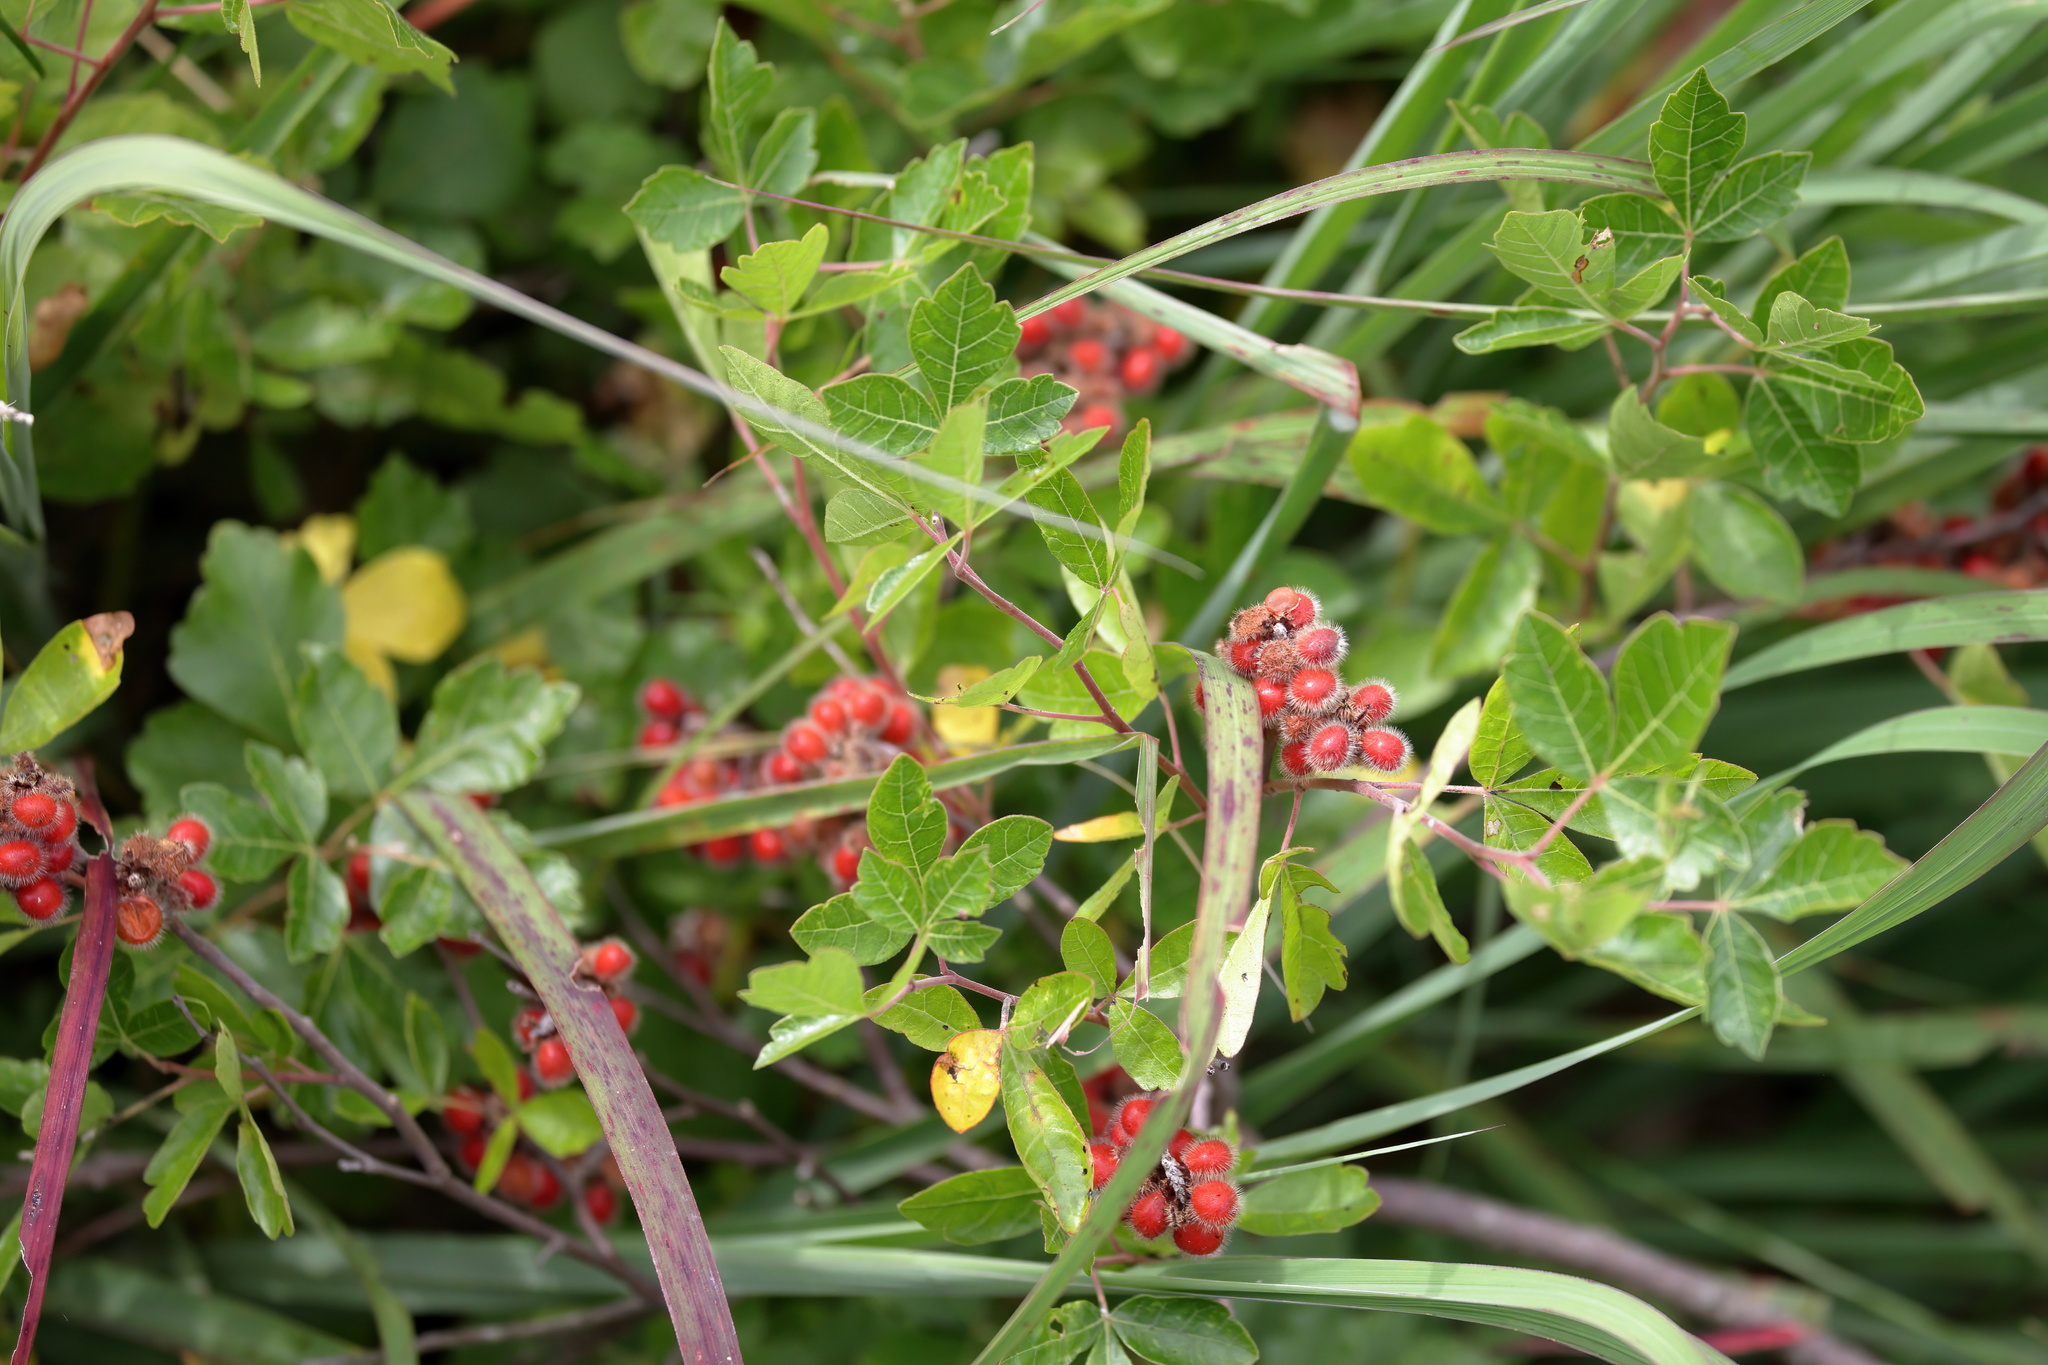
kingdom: Plantae
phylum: Tracheophyta
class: Magnoliopsida
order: Sapindales
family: Anacardiaceae
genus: Rhus
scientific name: Rhus aromatica
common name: Aromatic sumac
